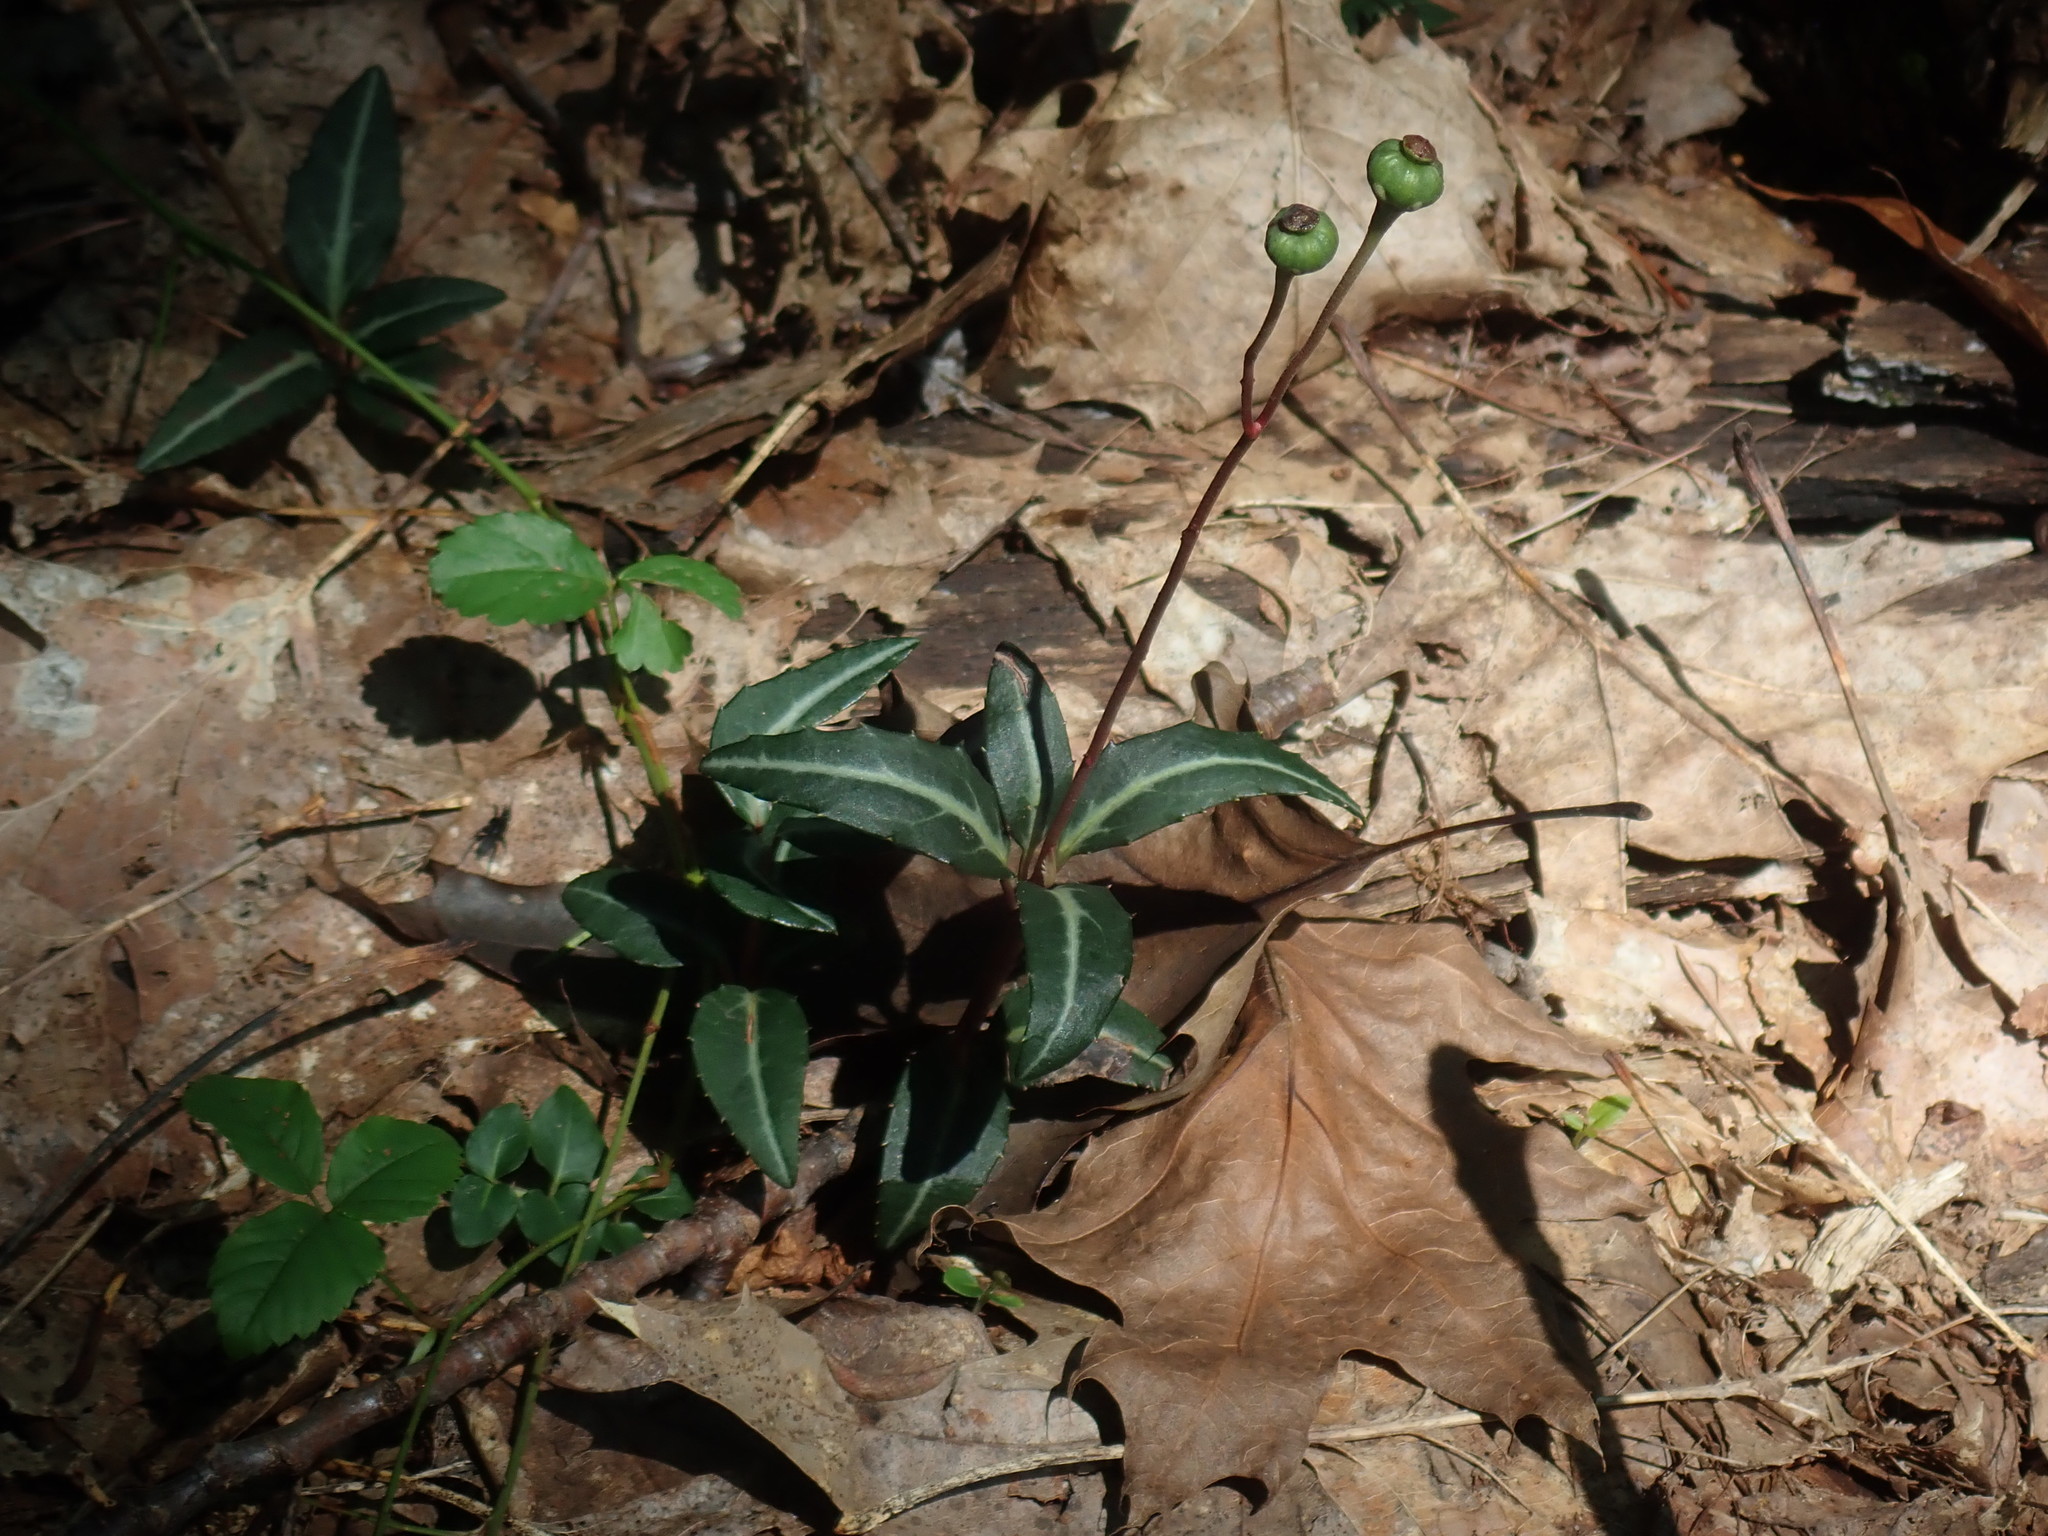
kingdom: Plantae
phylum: Tracheophyta
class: Magnoliopsida
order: Ericales
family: Ericaceae
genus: Chimaphila
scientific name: Chimaphila maculata
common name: Spotted pipsissewa
